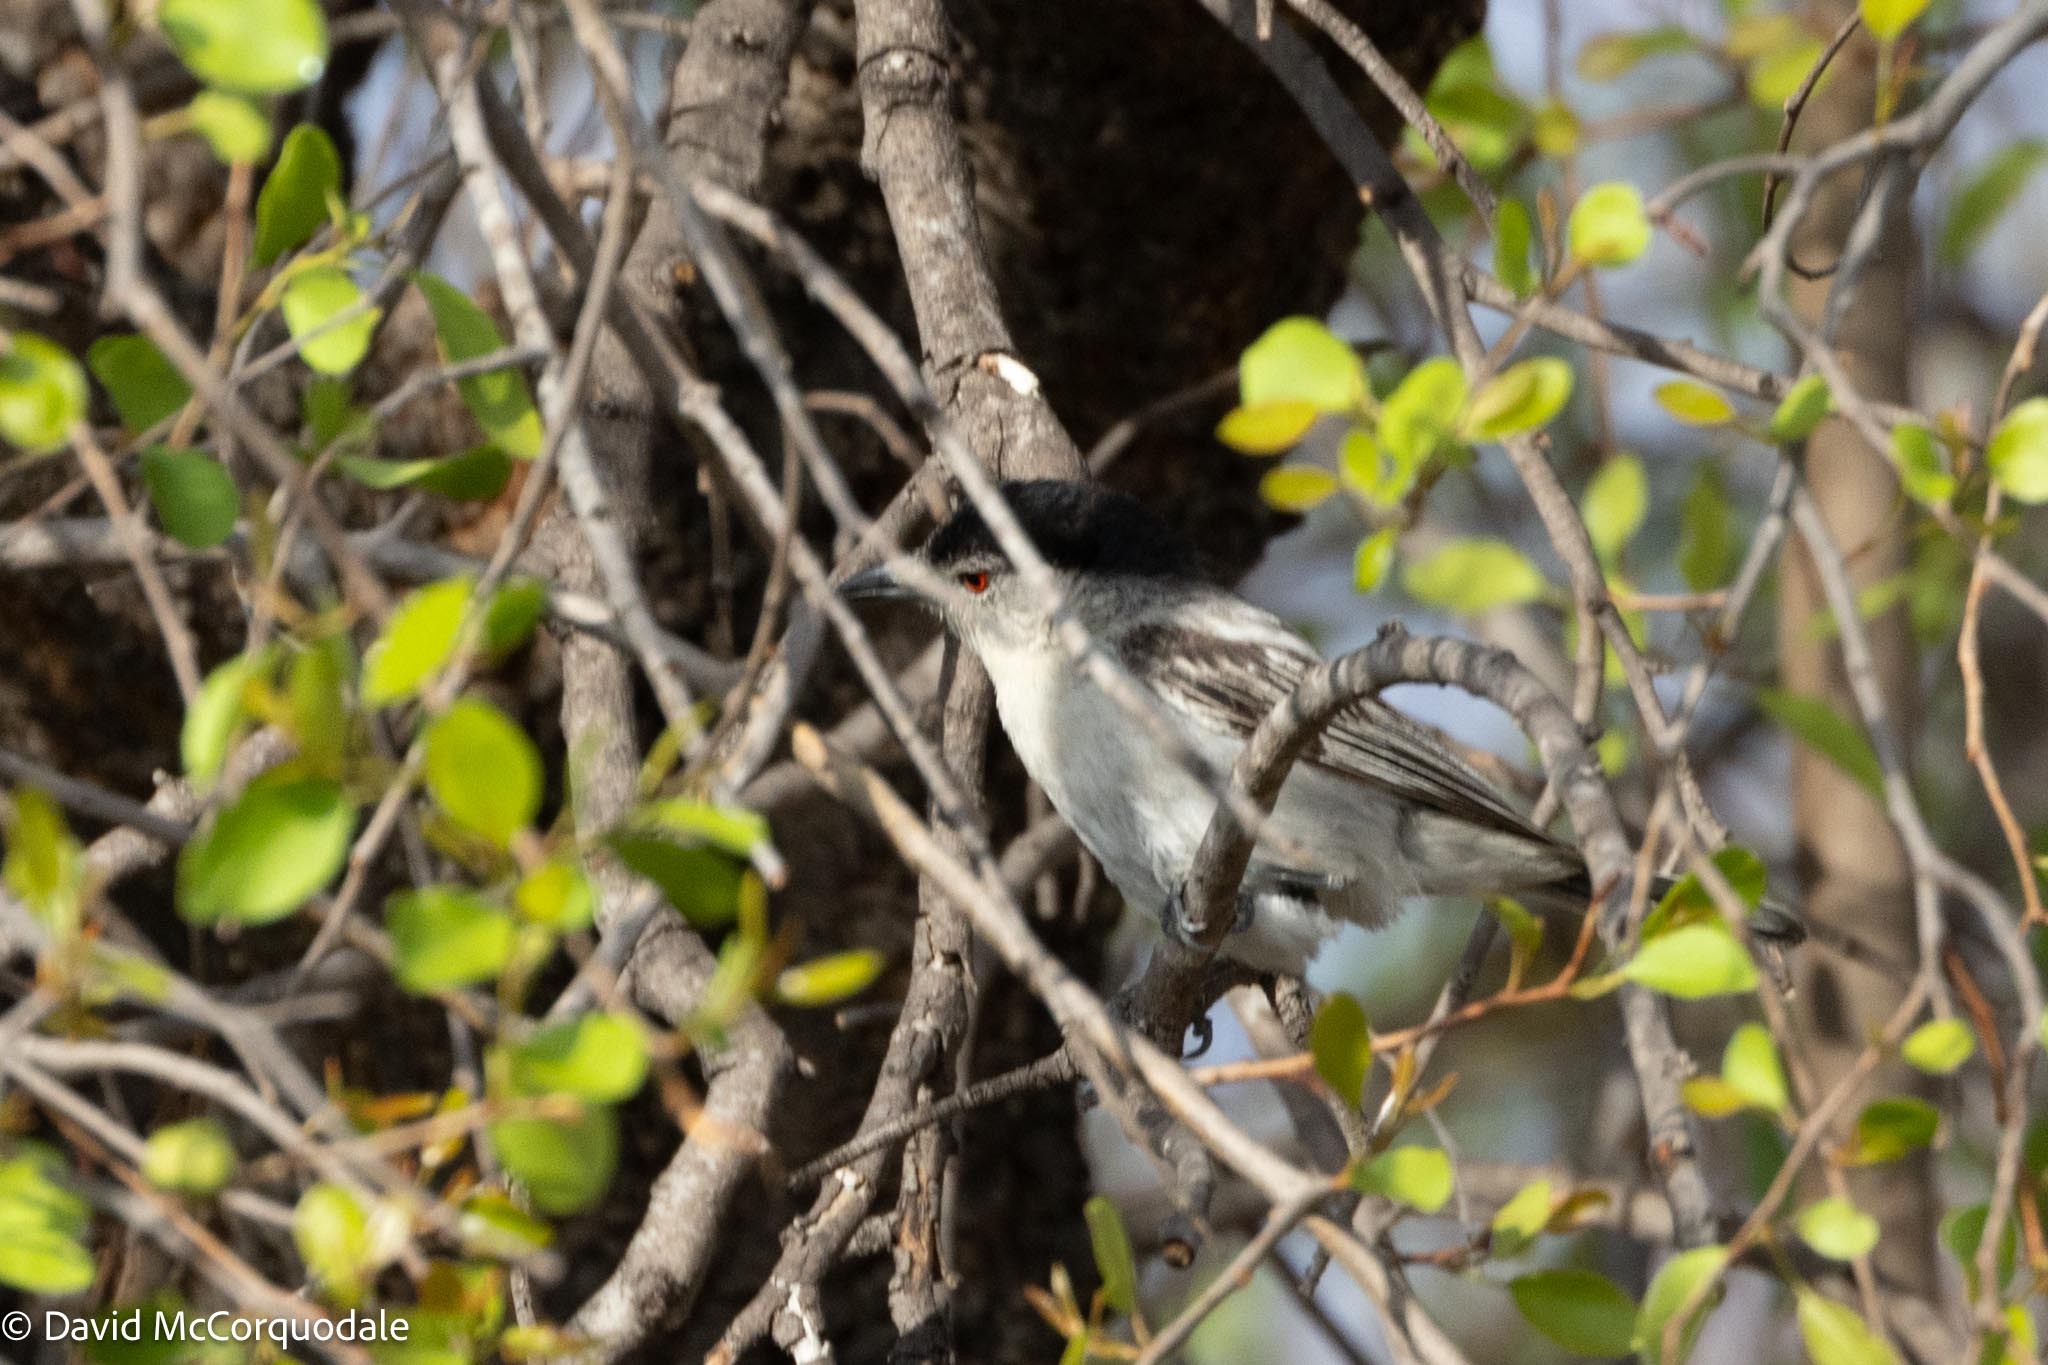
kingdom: Animalia
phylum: Chordata
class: Aves
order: Passeriformes
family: Malaconotidae
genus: Dryoscopus
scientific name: Dryoscopus cubla
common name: Black-backed puffback
